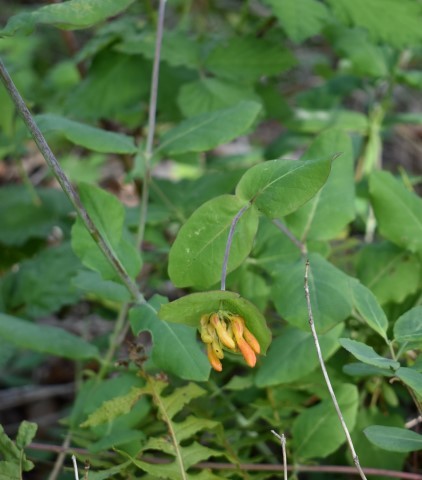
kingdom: Plantae
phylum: Tracheophyta
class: Magnoliopsida
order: Dipsacales
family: Caprifoliaceae
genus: Lonicera
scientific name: Lonicera ciliosa
